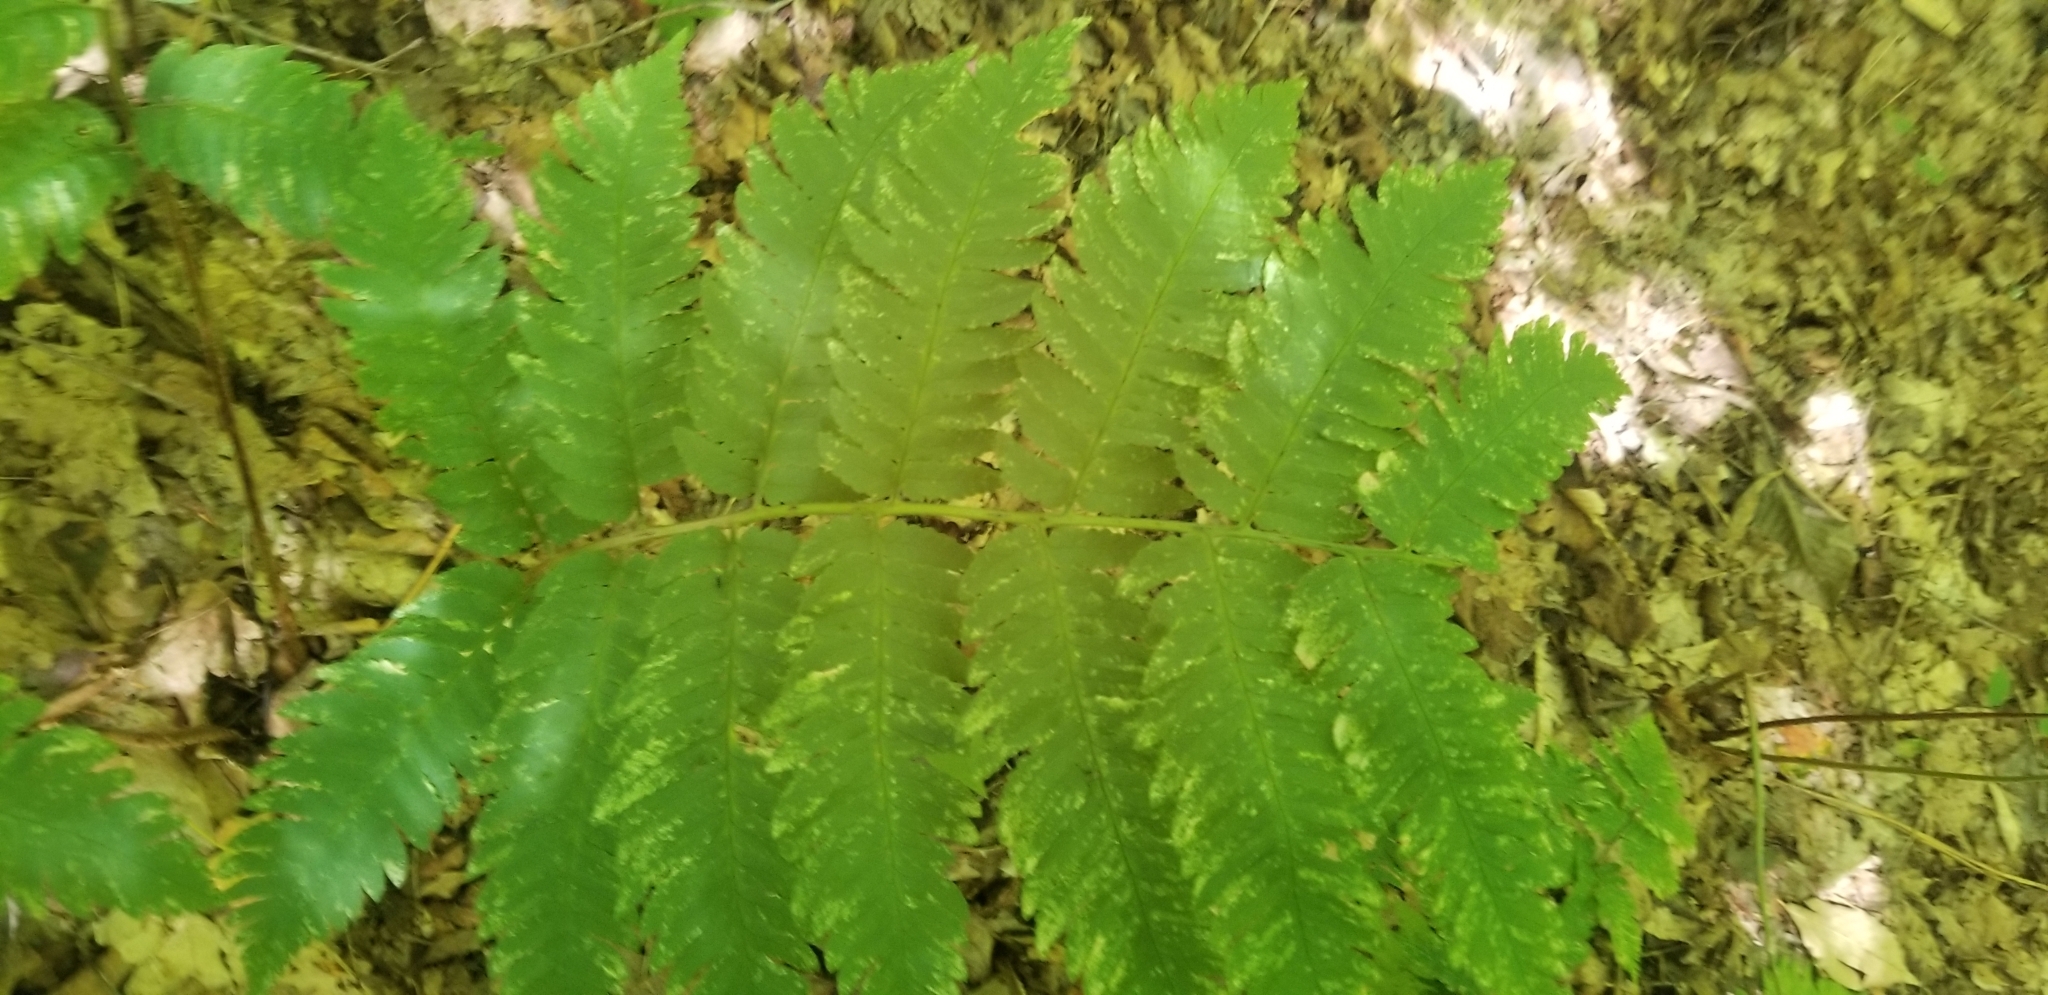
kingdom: Plantae
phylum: Tracheophyta
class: Polypodiopsida
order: Polypodiales
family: Dryopteridaceae
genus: Dryopteris
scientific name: Dryopteris goldieana
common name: Goldie's fern
